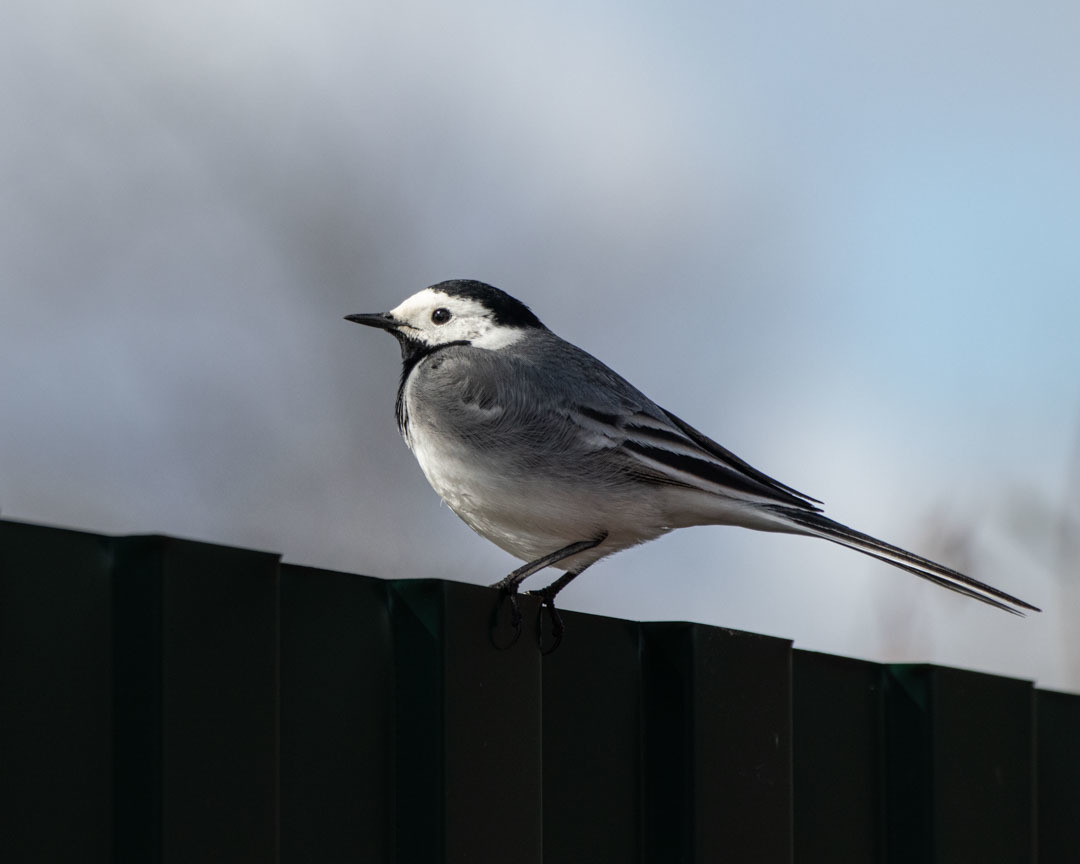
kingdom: Animalia
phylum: Chordata
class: Aves
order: Passeriformes
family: Motacillidae
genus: Motacilla
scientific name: Motacilla alba
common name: White wagtail
